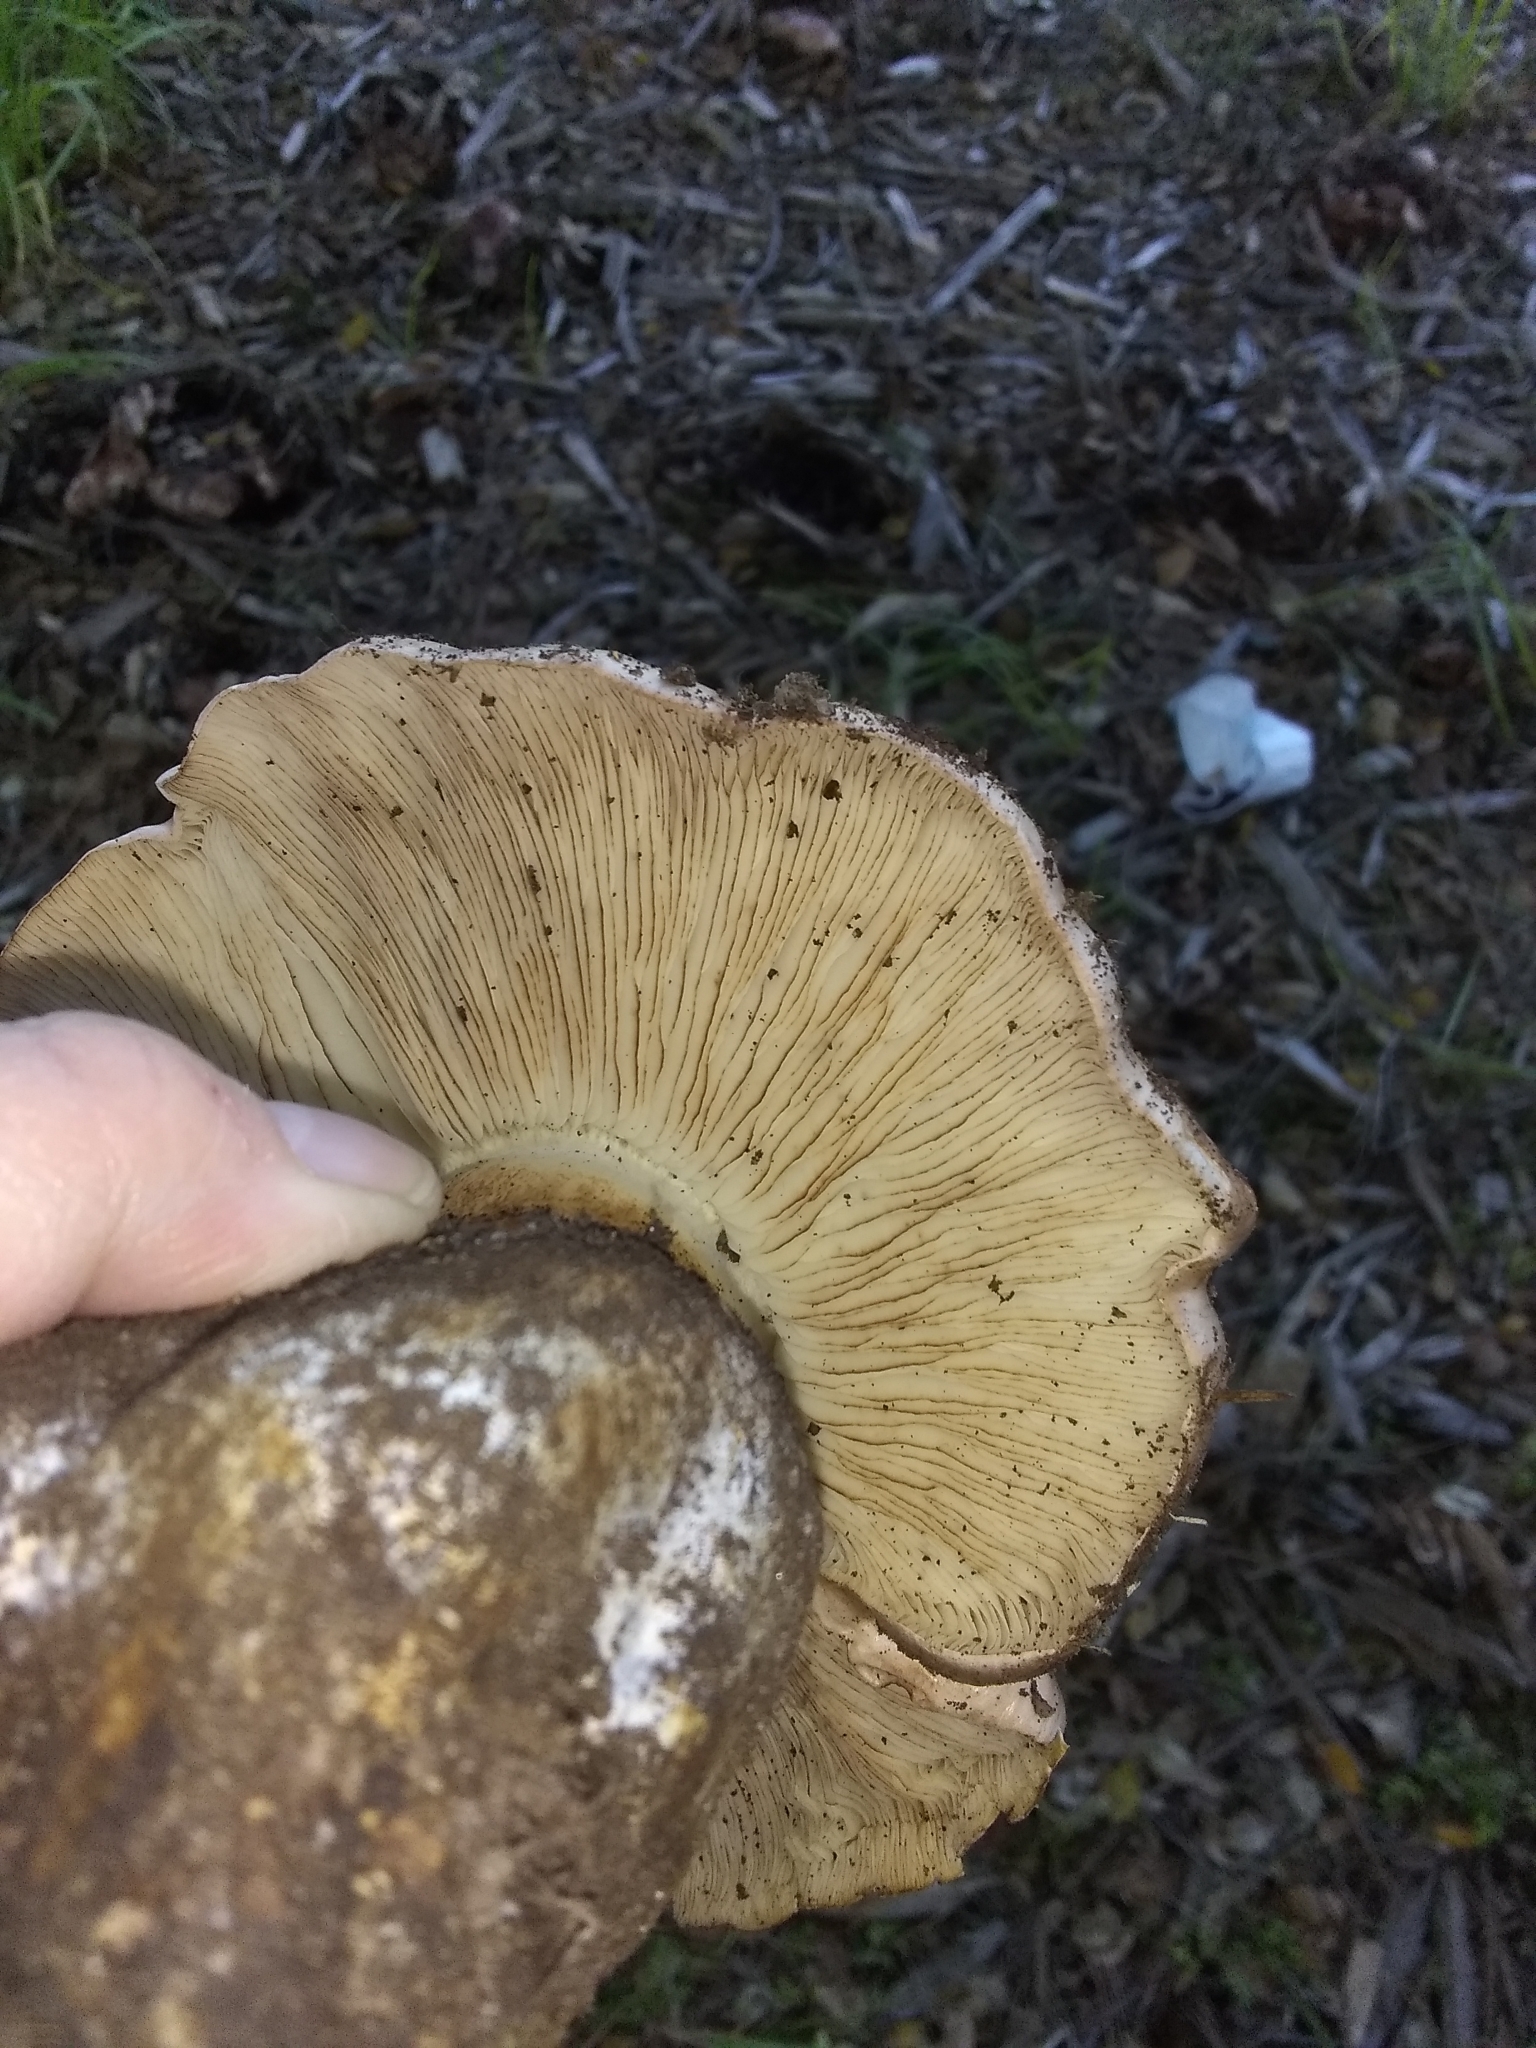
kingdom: Fungi
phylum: Basidiomycota
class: Agaricomycetes
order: Agaricales
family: Tricholomataceae
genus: Melanoleuca
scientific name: Melanoleuca dryophila
